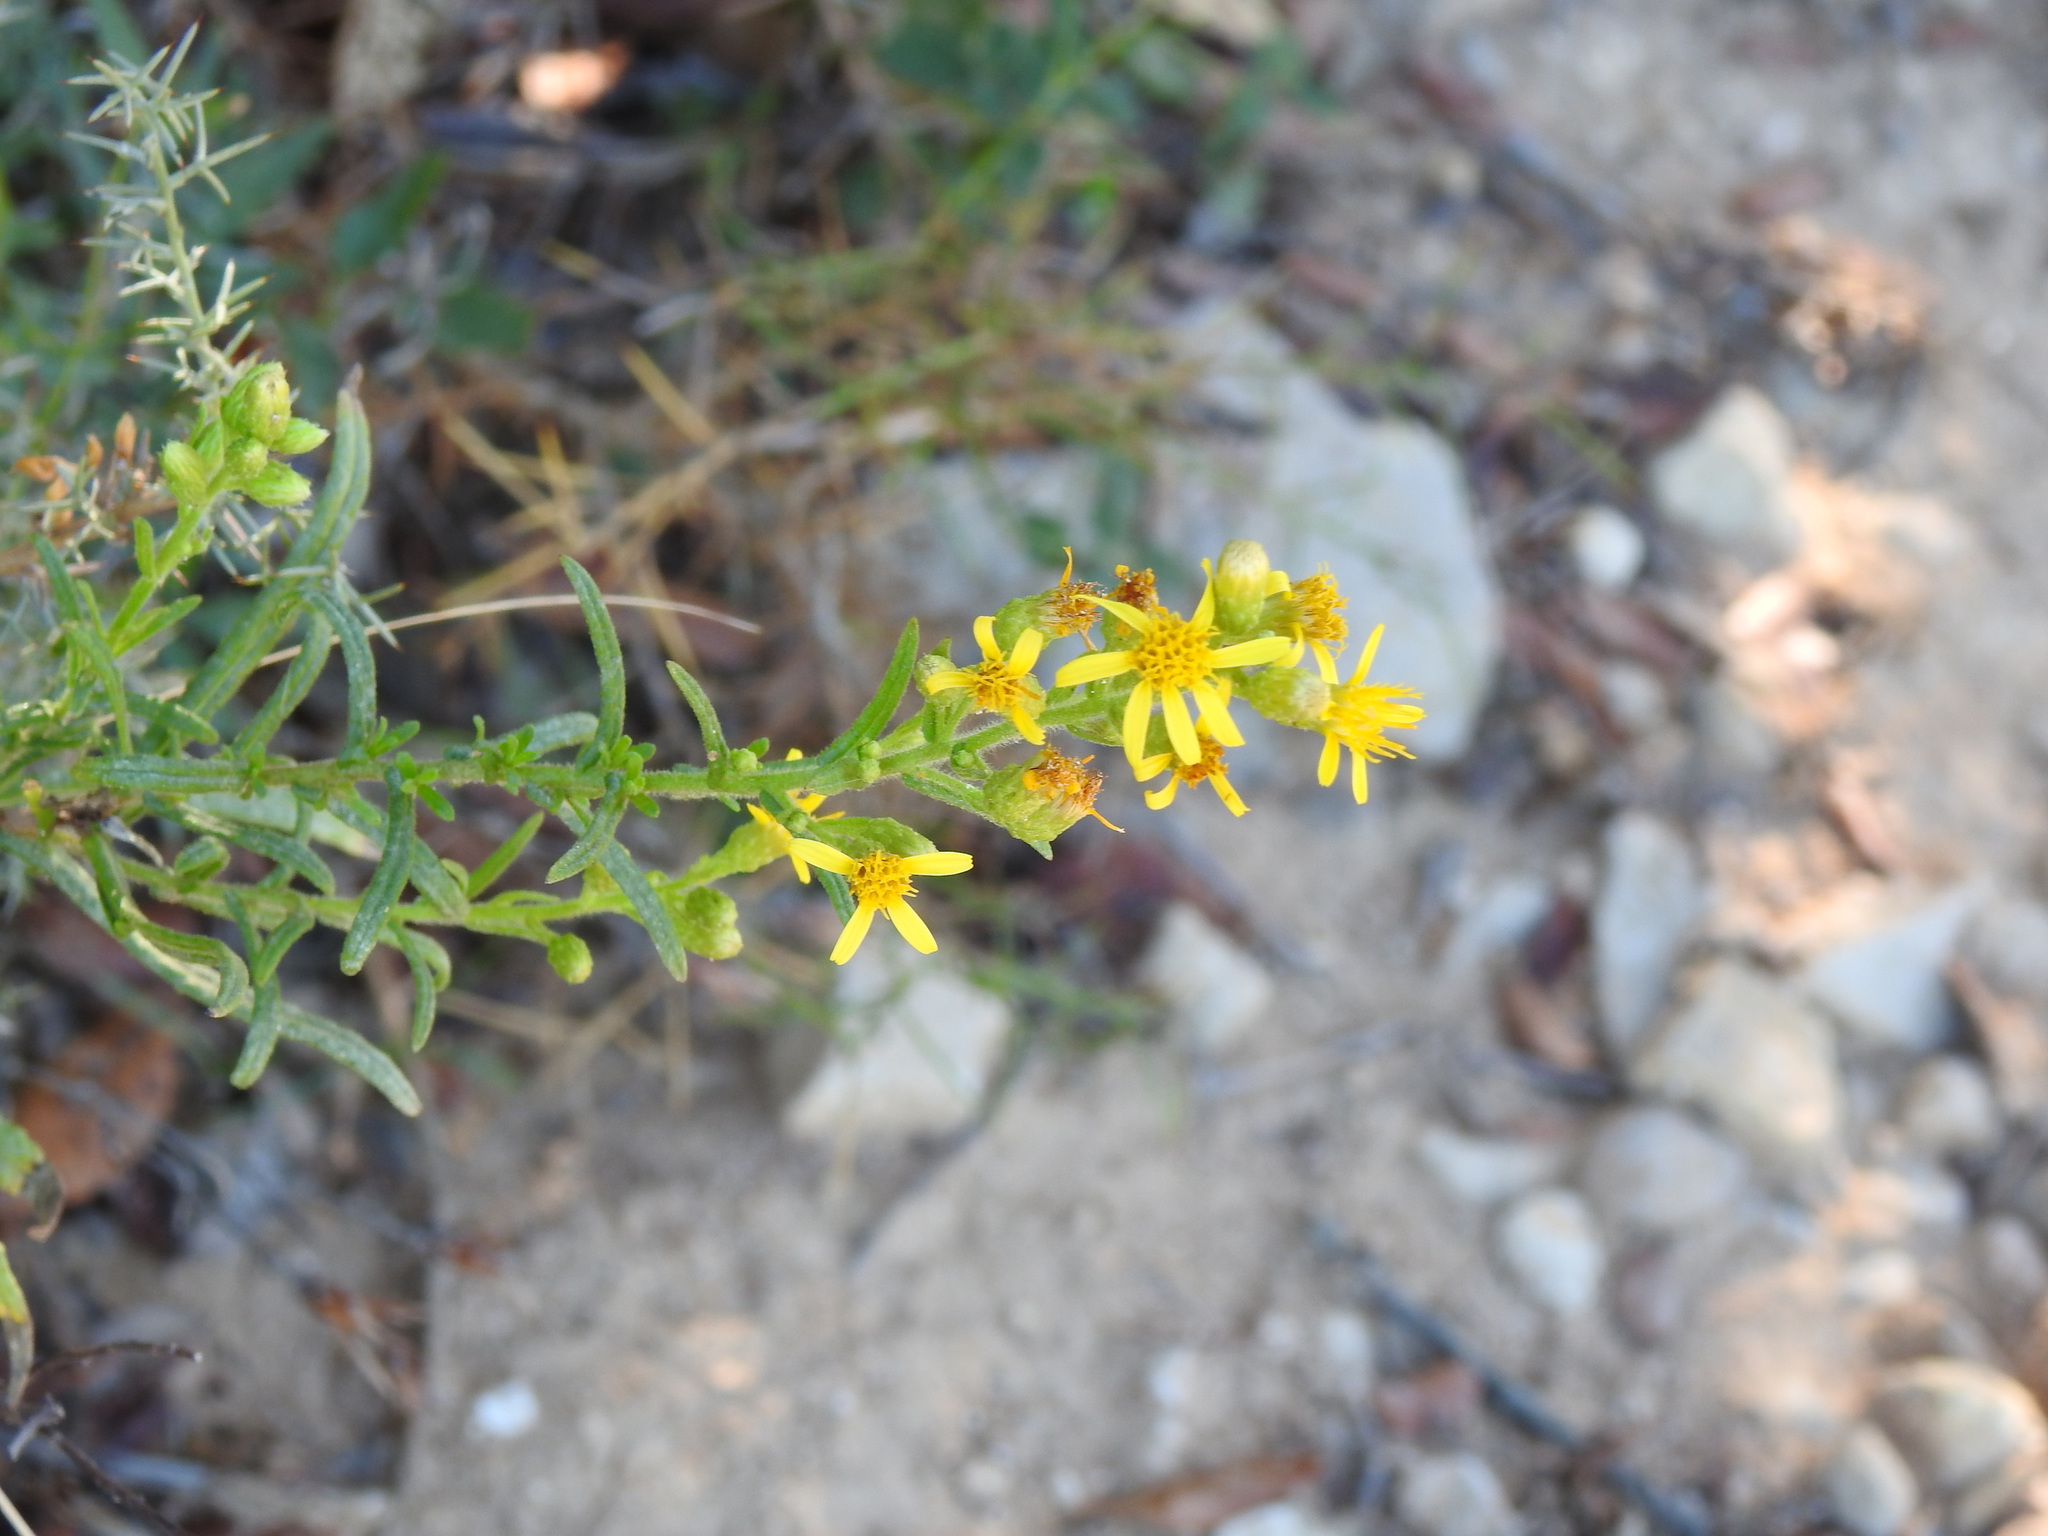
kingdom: Plantae
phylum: Tracheophyta
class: Magnoliopsida
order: Asterales
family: Asteraceae
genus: Dittrichia
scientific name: Dittrichia viscosa
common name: Woody fleabane
